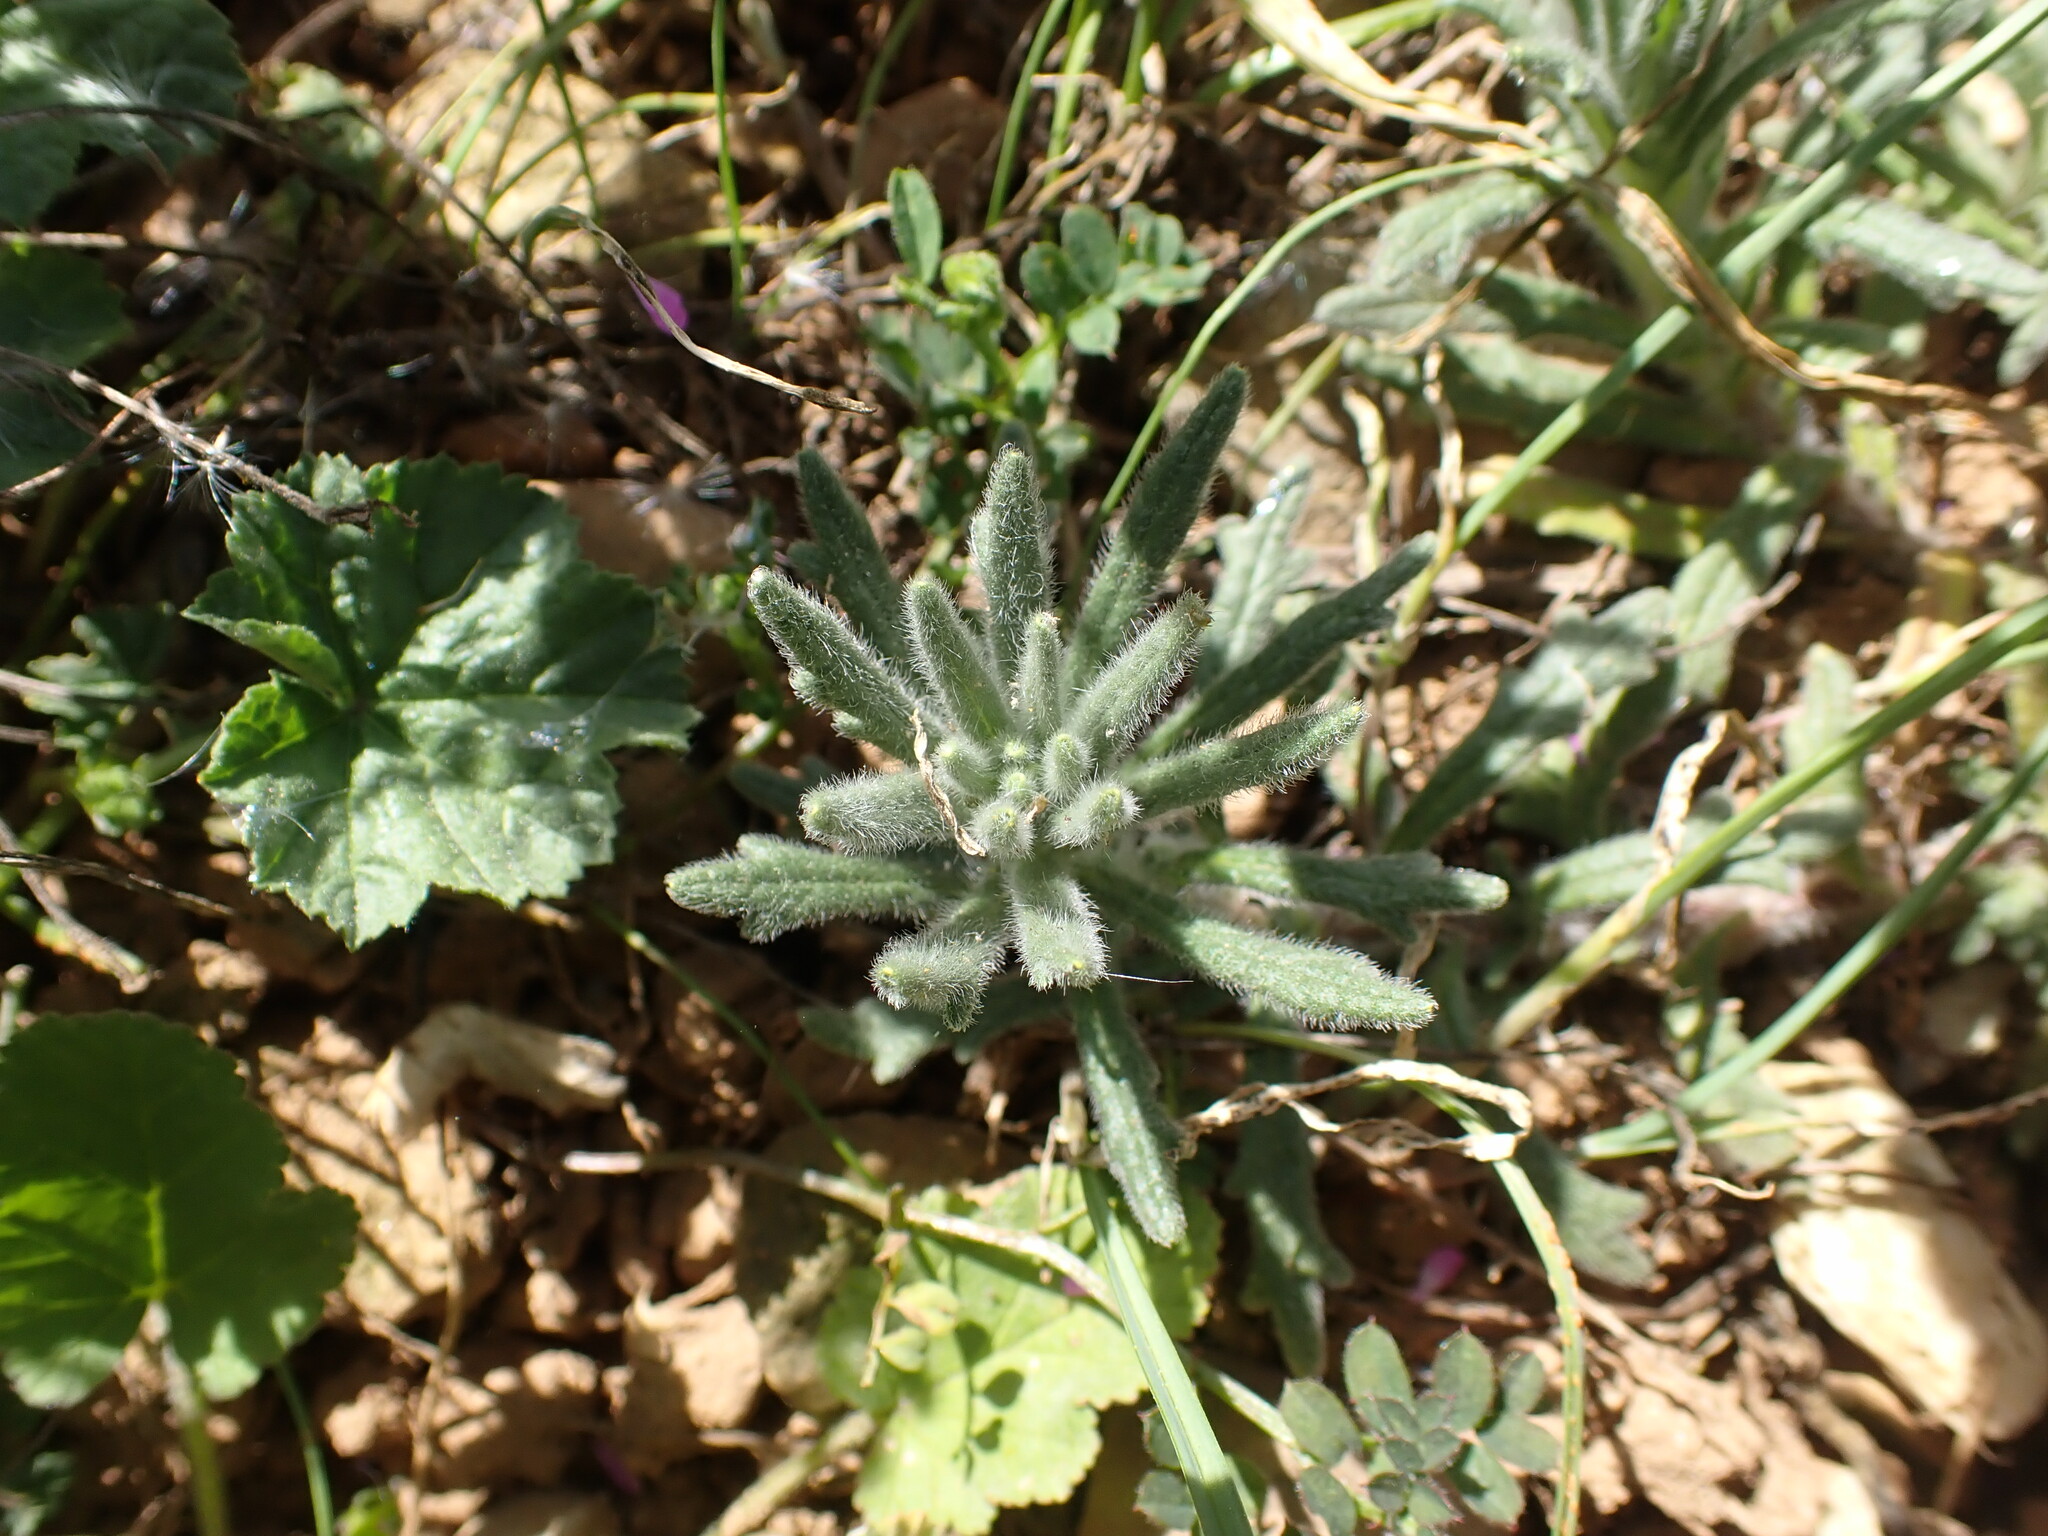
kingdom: Plantae
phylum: Tracheophyta
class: Magnoliopsida
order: Lamiales
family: Lamiaceae
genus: Ajuga
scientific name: Ajuga iva
